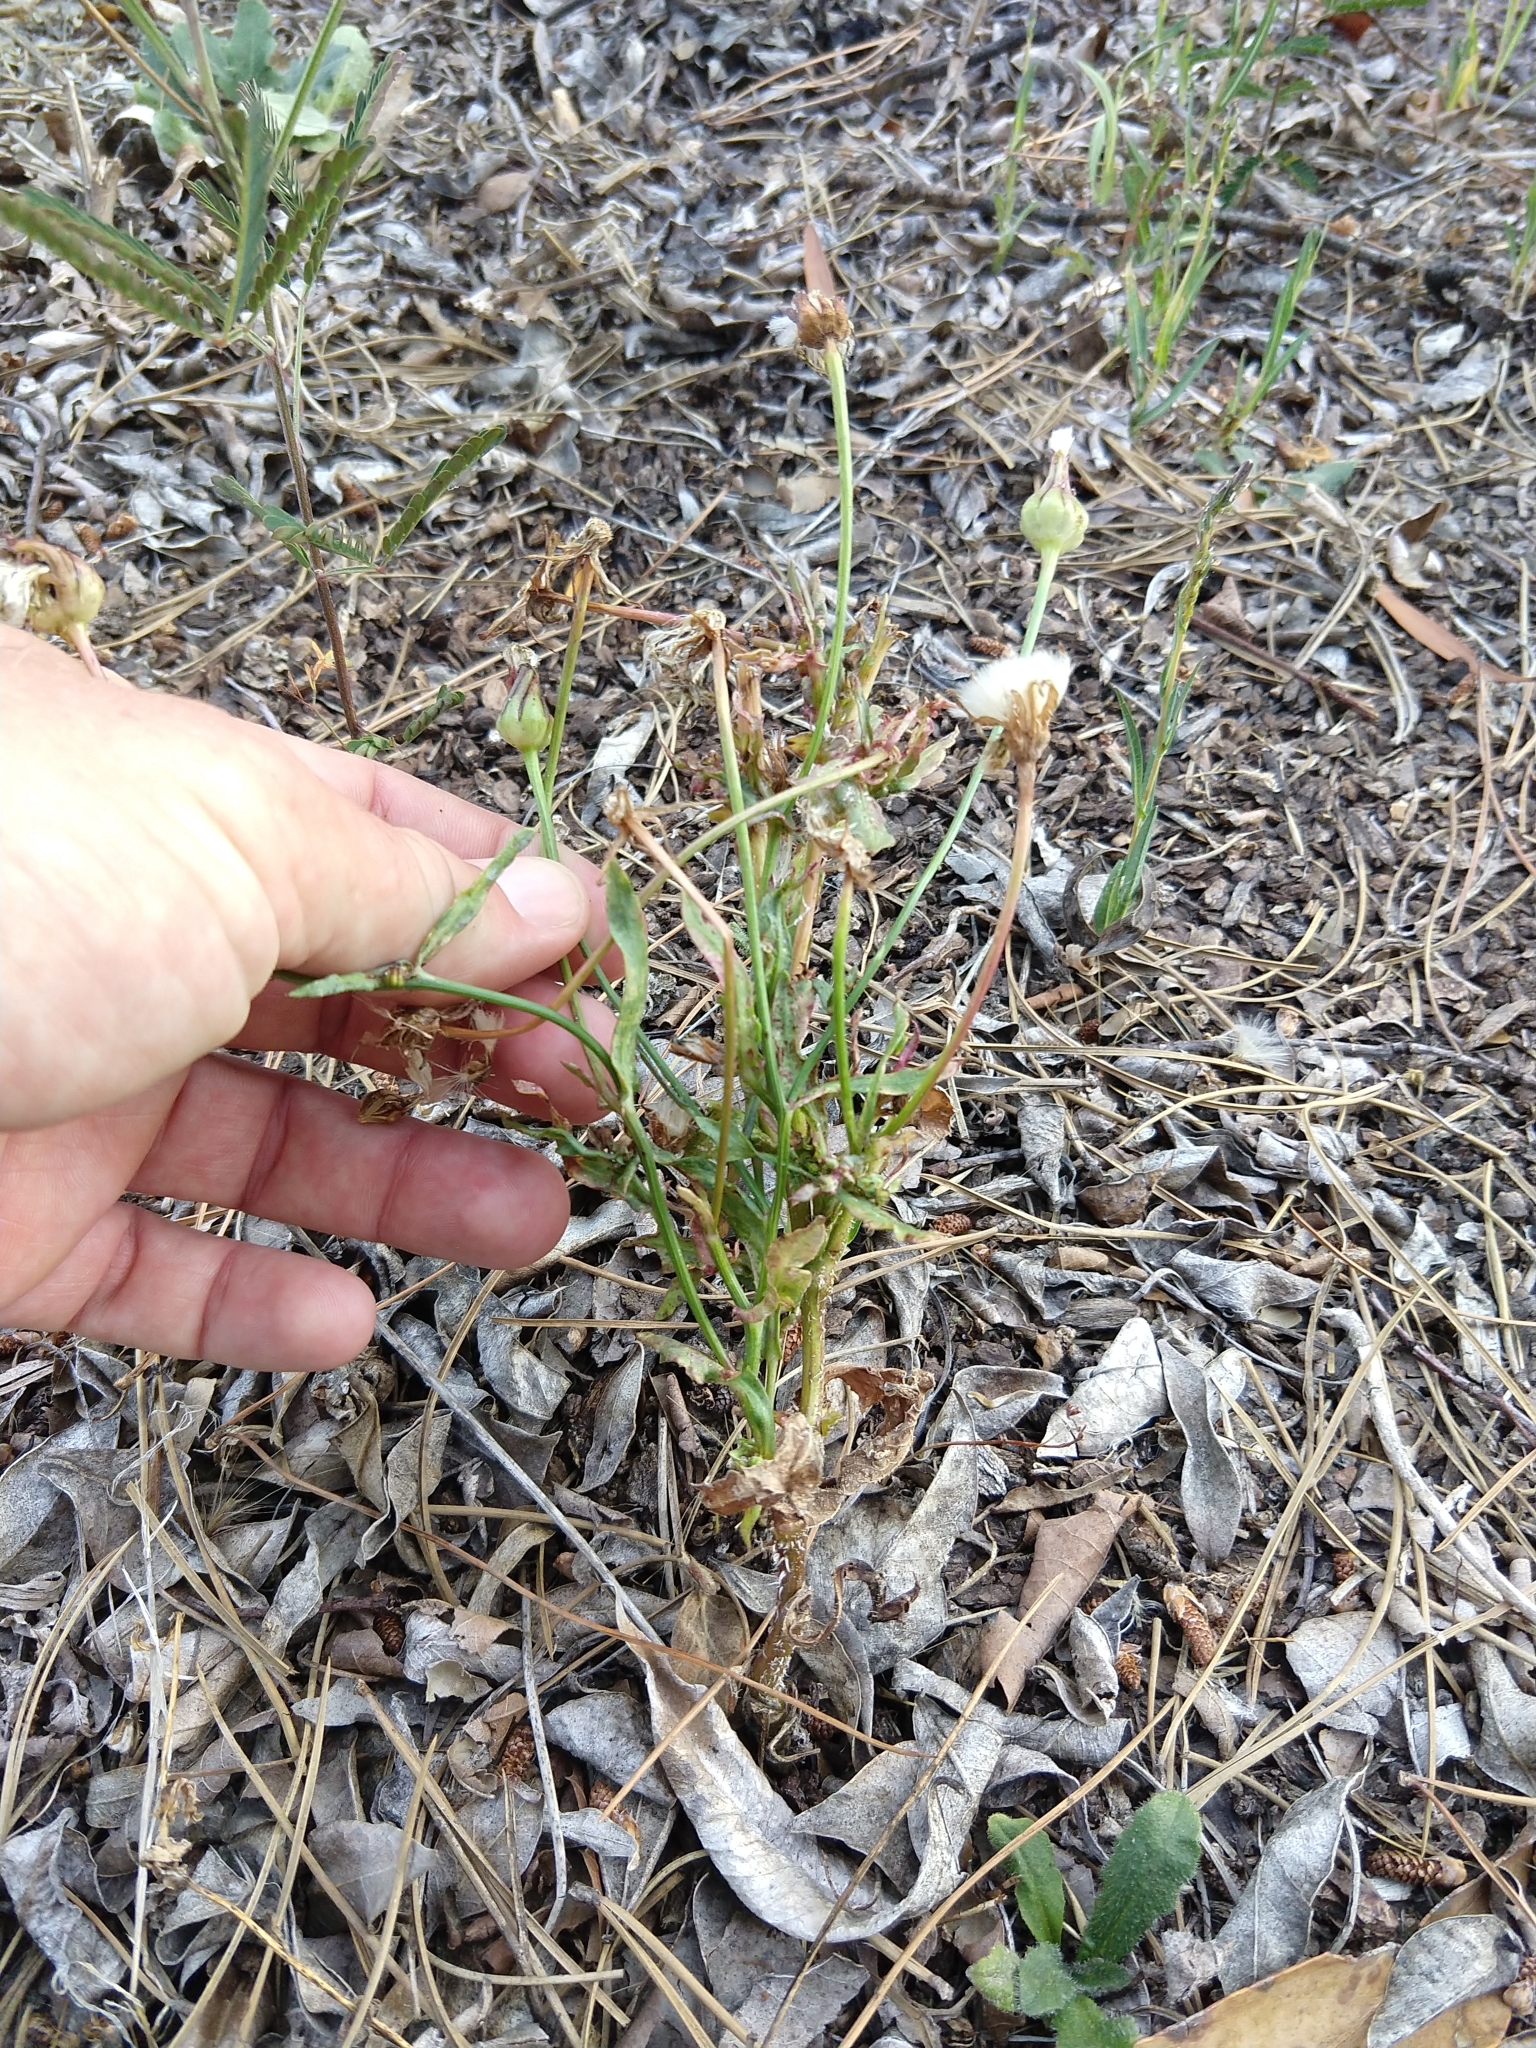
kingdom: Plantae
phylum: Tracheophyta
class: Magnoliopsida
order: Asterales
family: Asteraceae
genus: Urospermum
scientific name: Urospermum picroides
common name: False hawkbit
